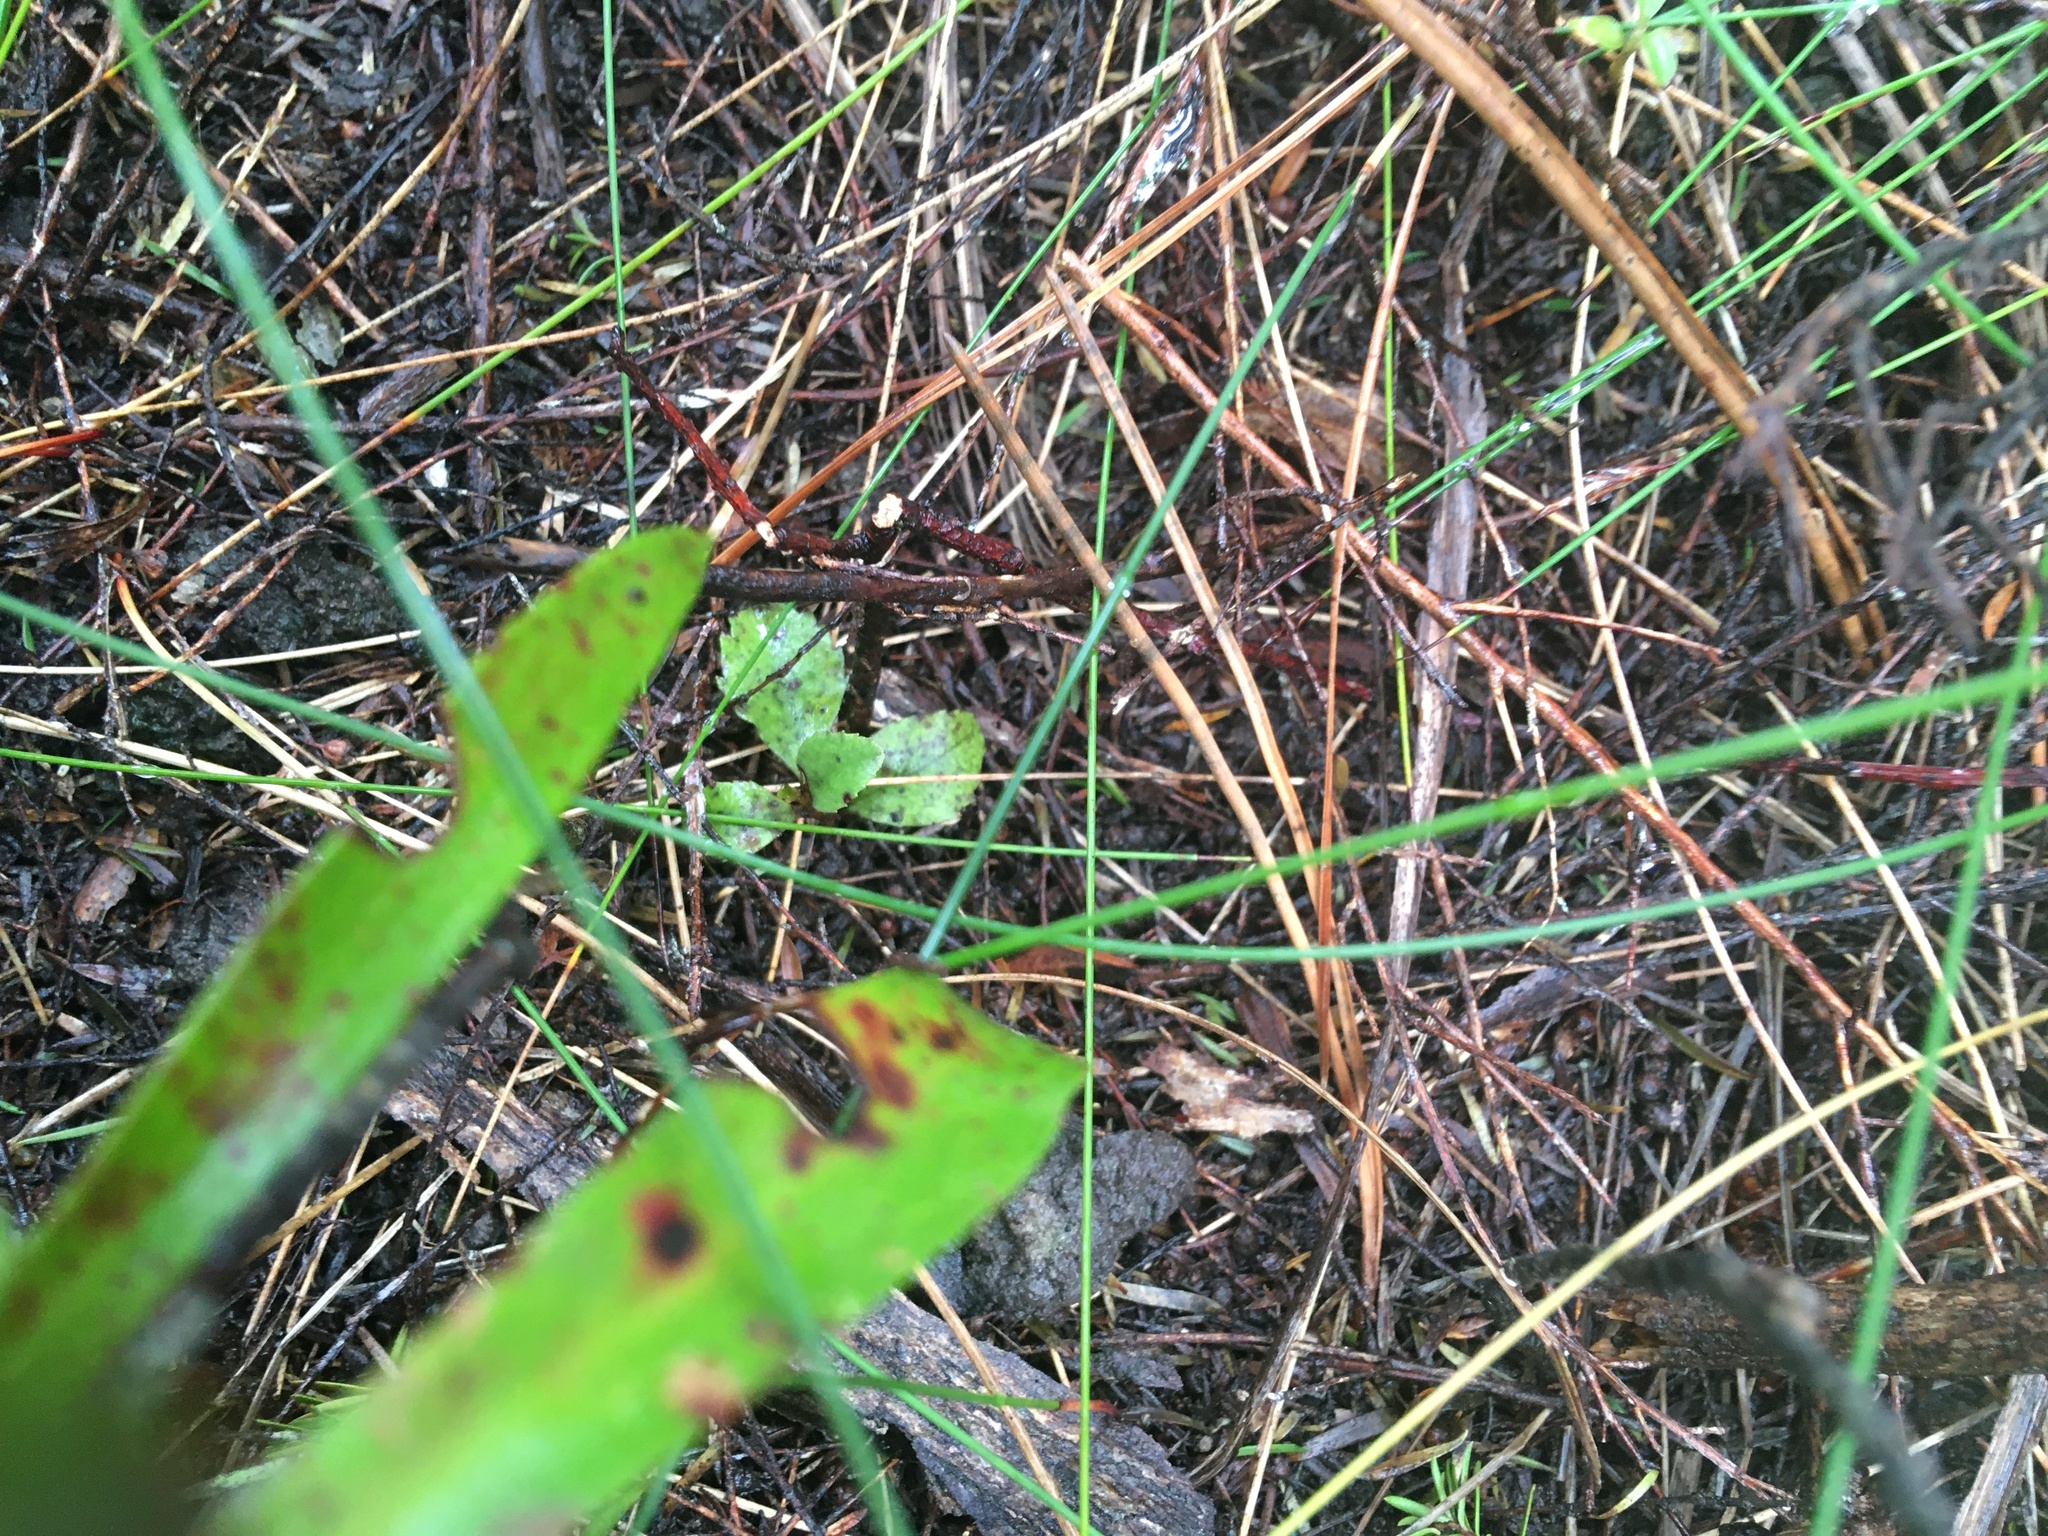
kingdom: Plantae
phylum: Tracheophyta
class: Magnoliopsida
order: Ericales
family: Primulaceae
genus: Myrsine
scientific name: Myrsine australis
